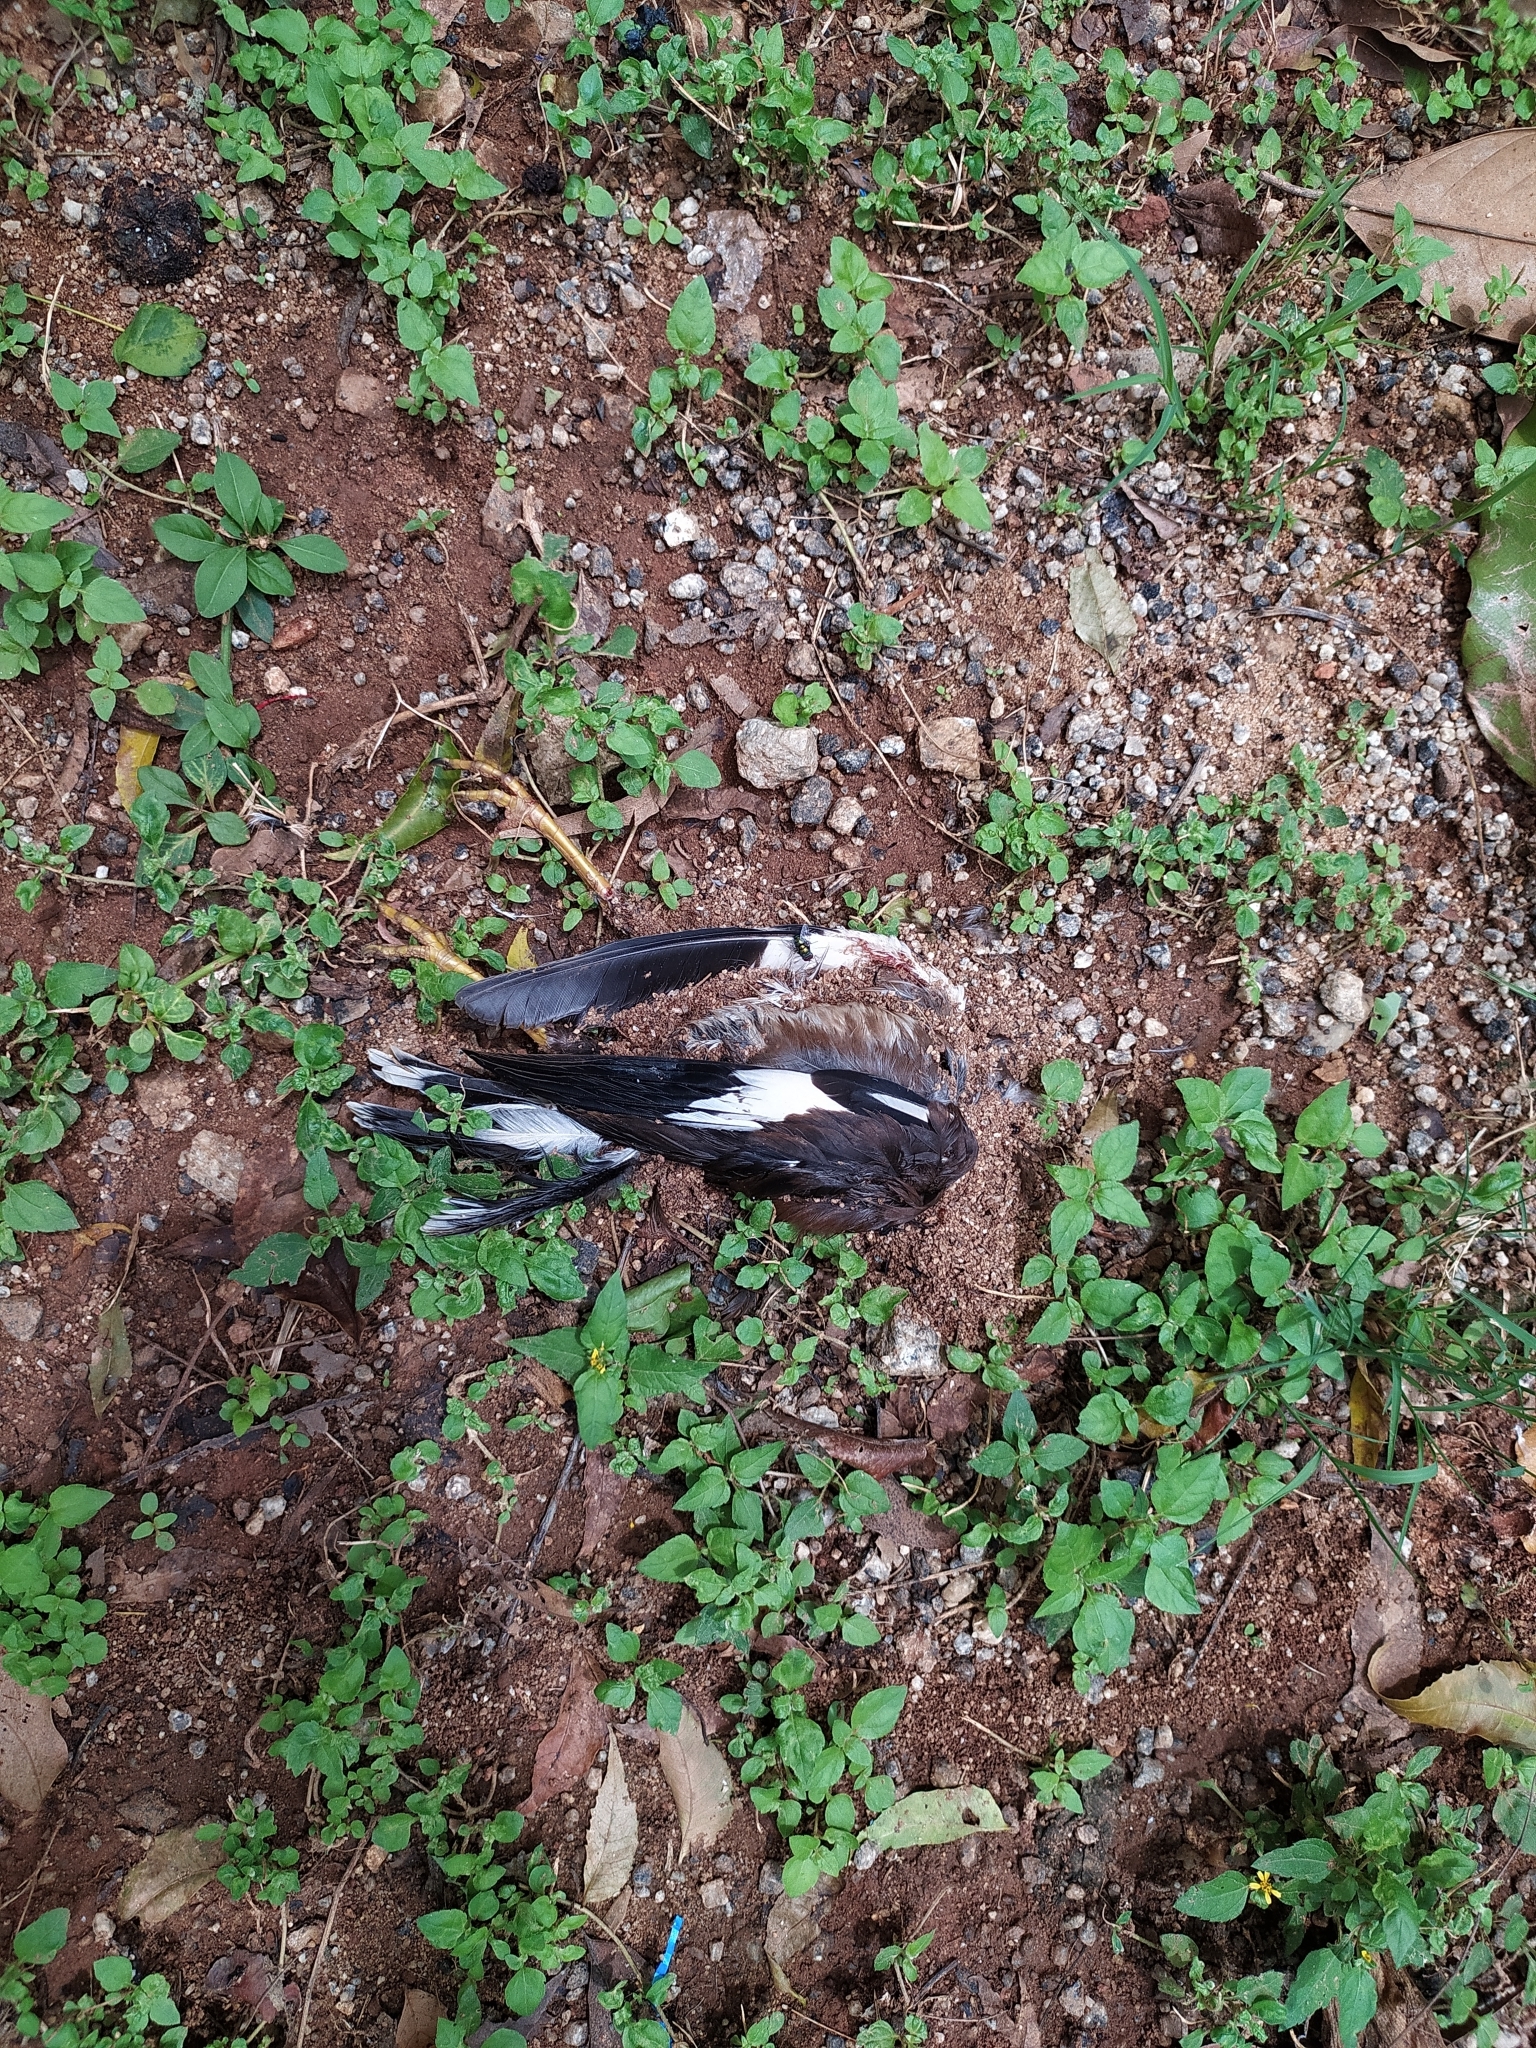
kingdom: Animalia
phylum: Chordata
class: Aves
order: Passeriformes
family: Sturnidae
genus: Acridotheres
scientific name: Acridotheres tristis
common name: Common myna
